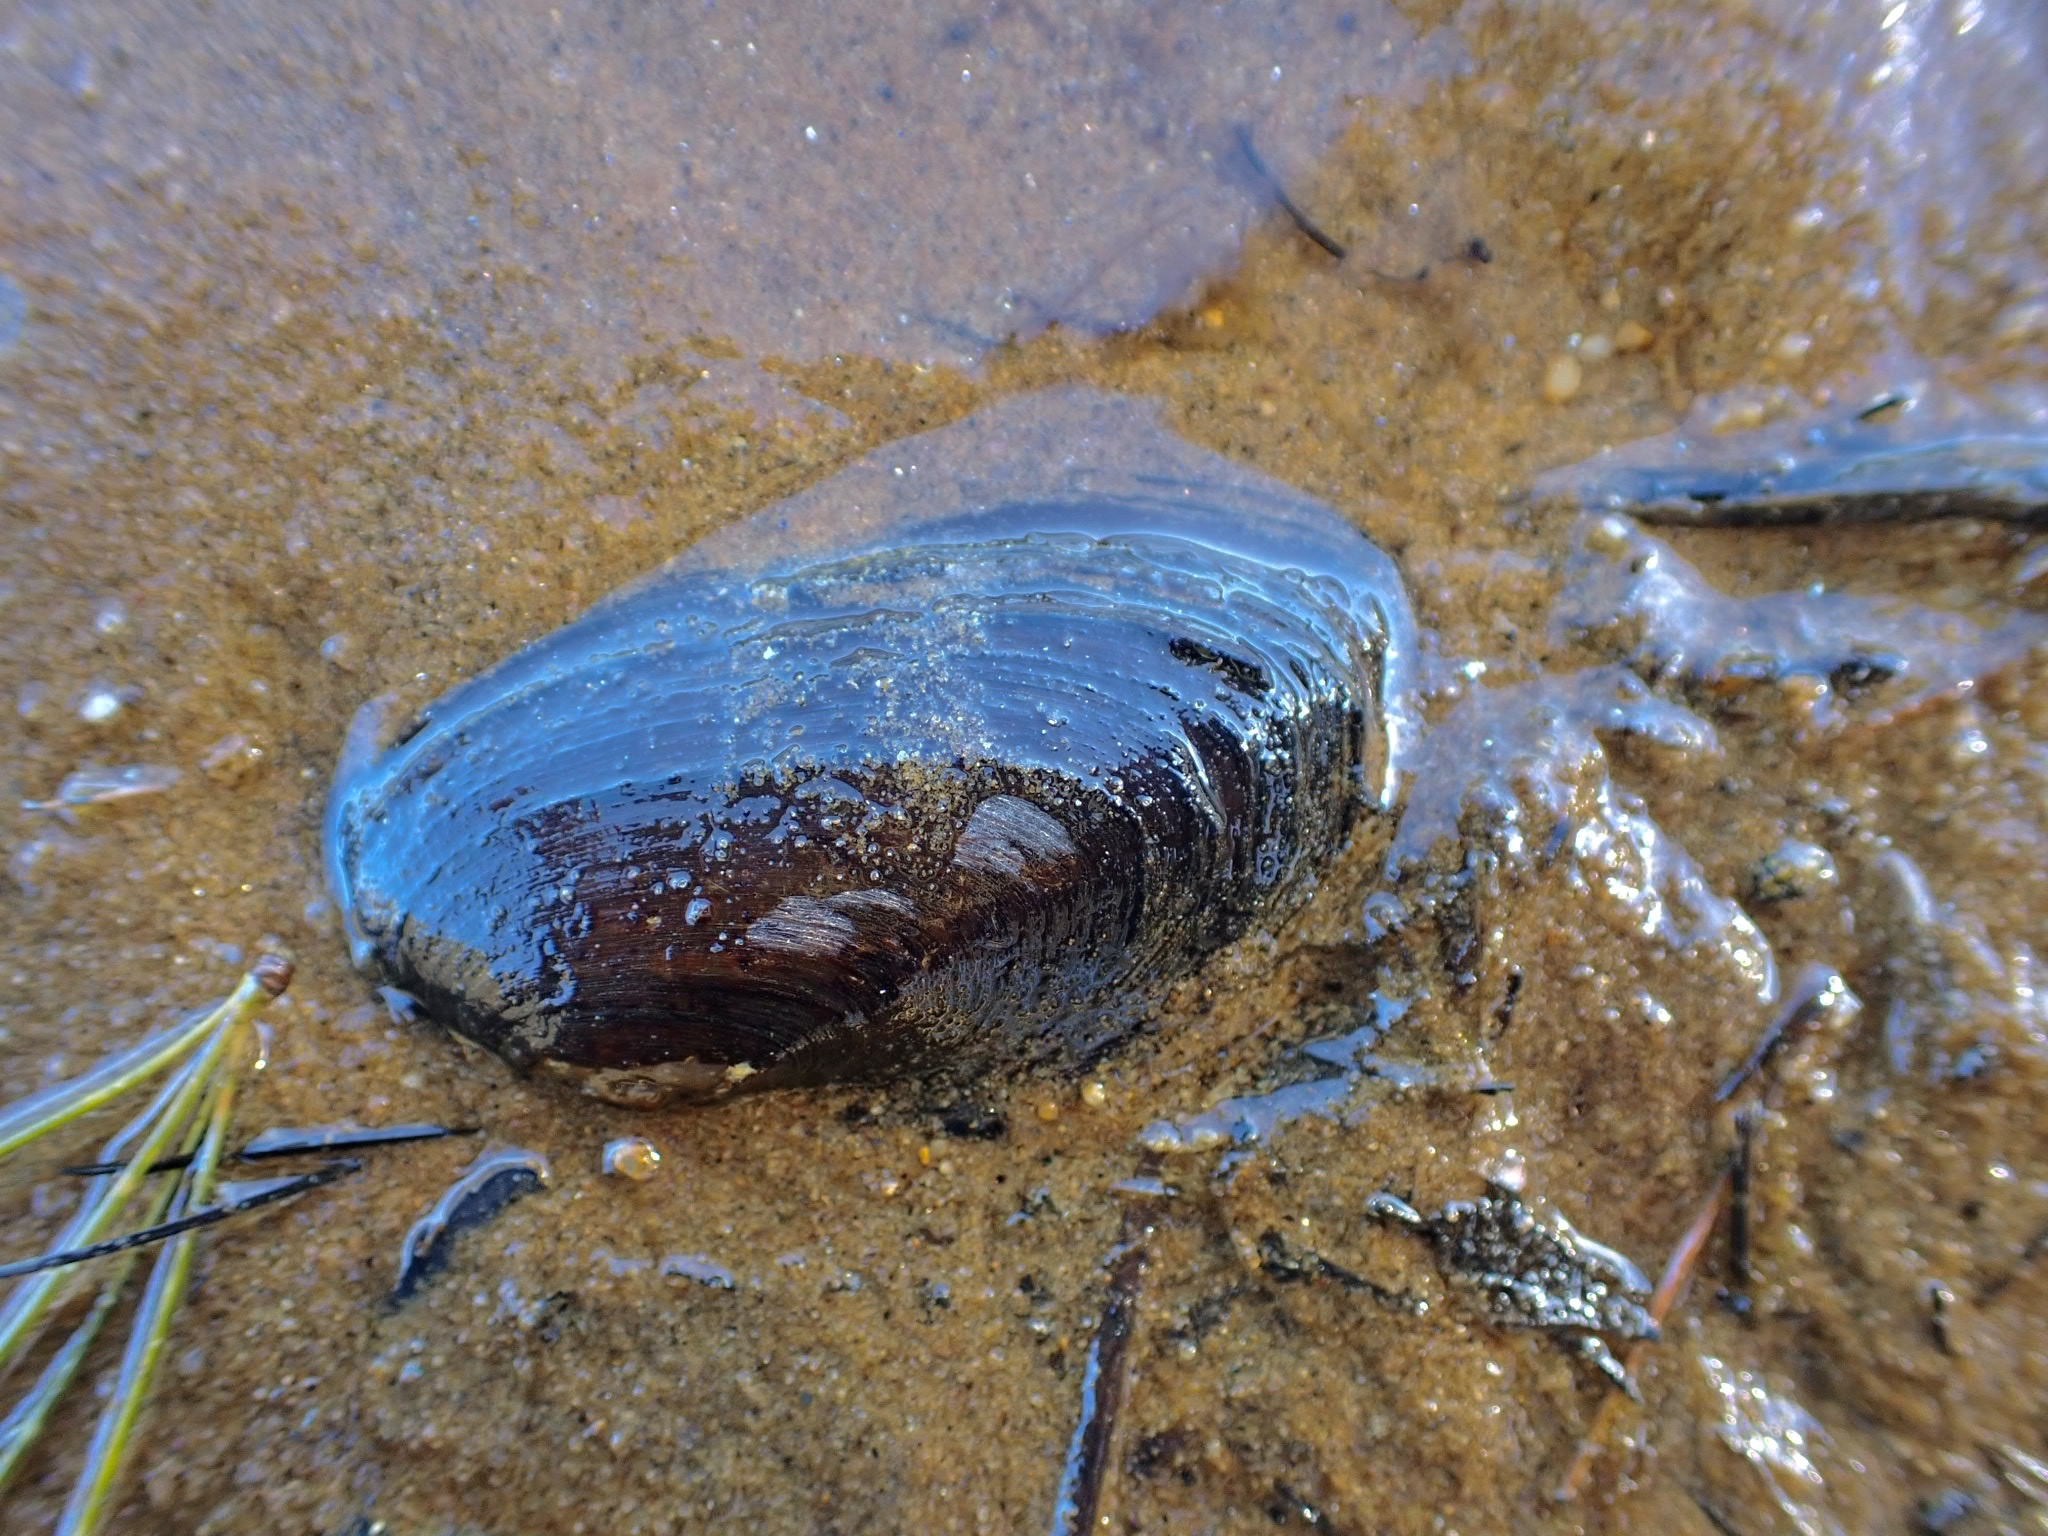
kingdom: Animalia
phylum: Mollusca
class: Bivalvia
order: Unionida
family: Unionidae
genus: Elliptio
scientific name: Elliptio complanata
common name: Eastern elliptio
